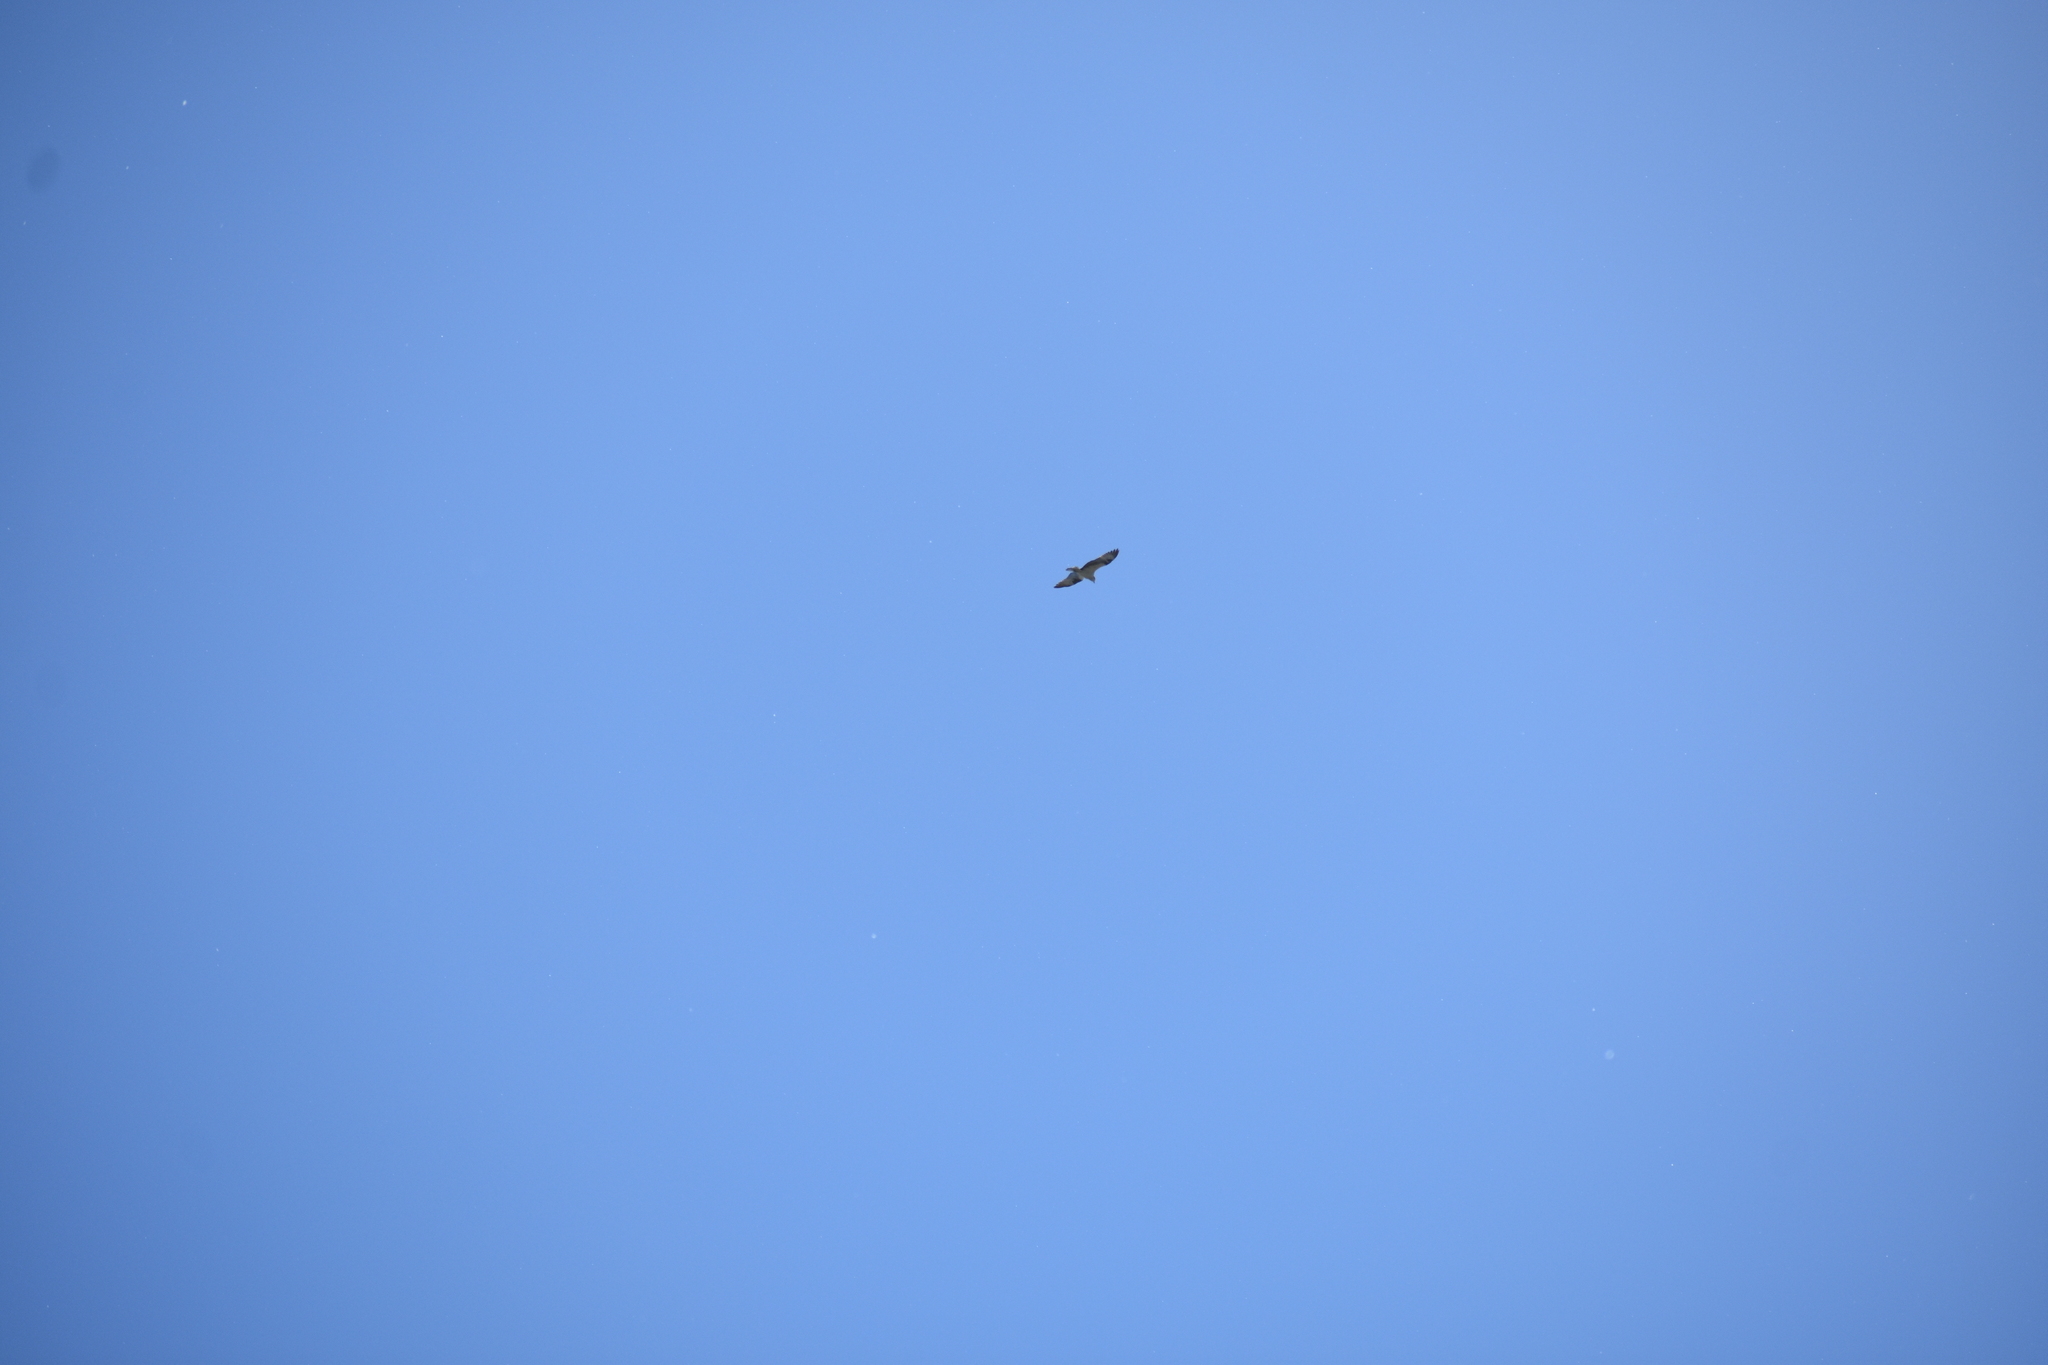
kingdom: Animalia
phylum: Chordata
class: Aves
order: Accipitriformes
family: Pandionidae
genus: Pandion
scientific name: Pandion haliaetus
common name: Osprey
